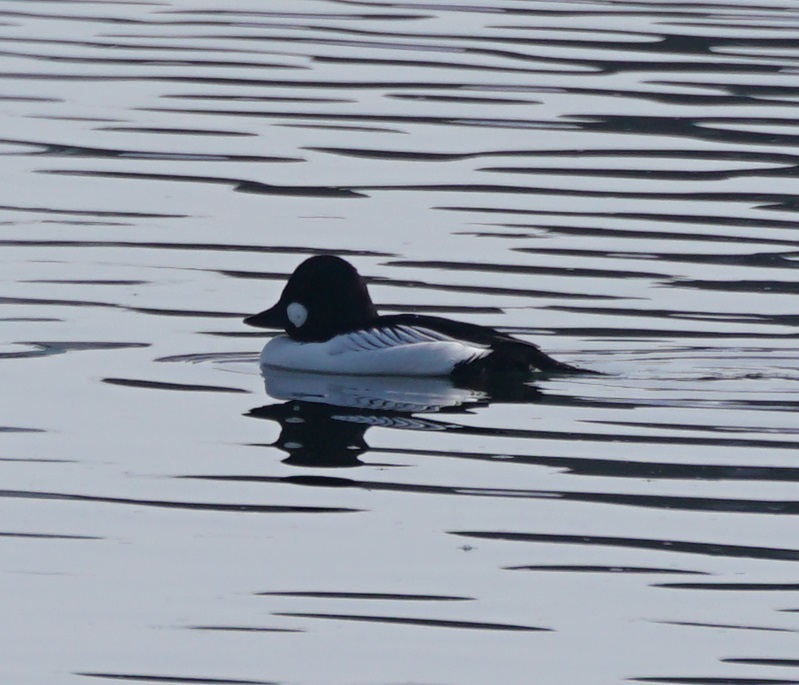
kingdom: Animalia
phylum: Chordata
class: Aves
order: Anseriformes
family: Anatidae
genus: Bucephala
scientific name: Bucephala clangula
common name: Common goldeneye
